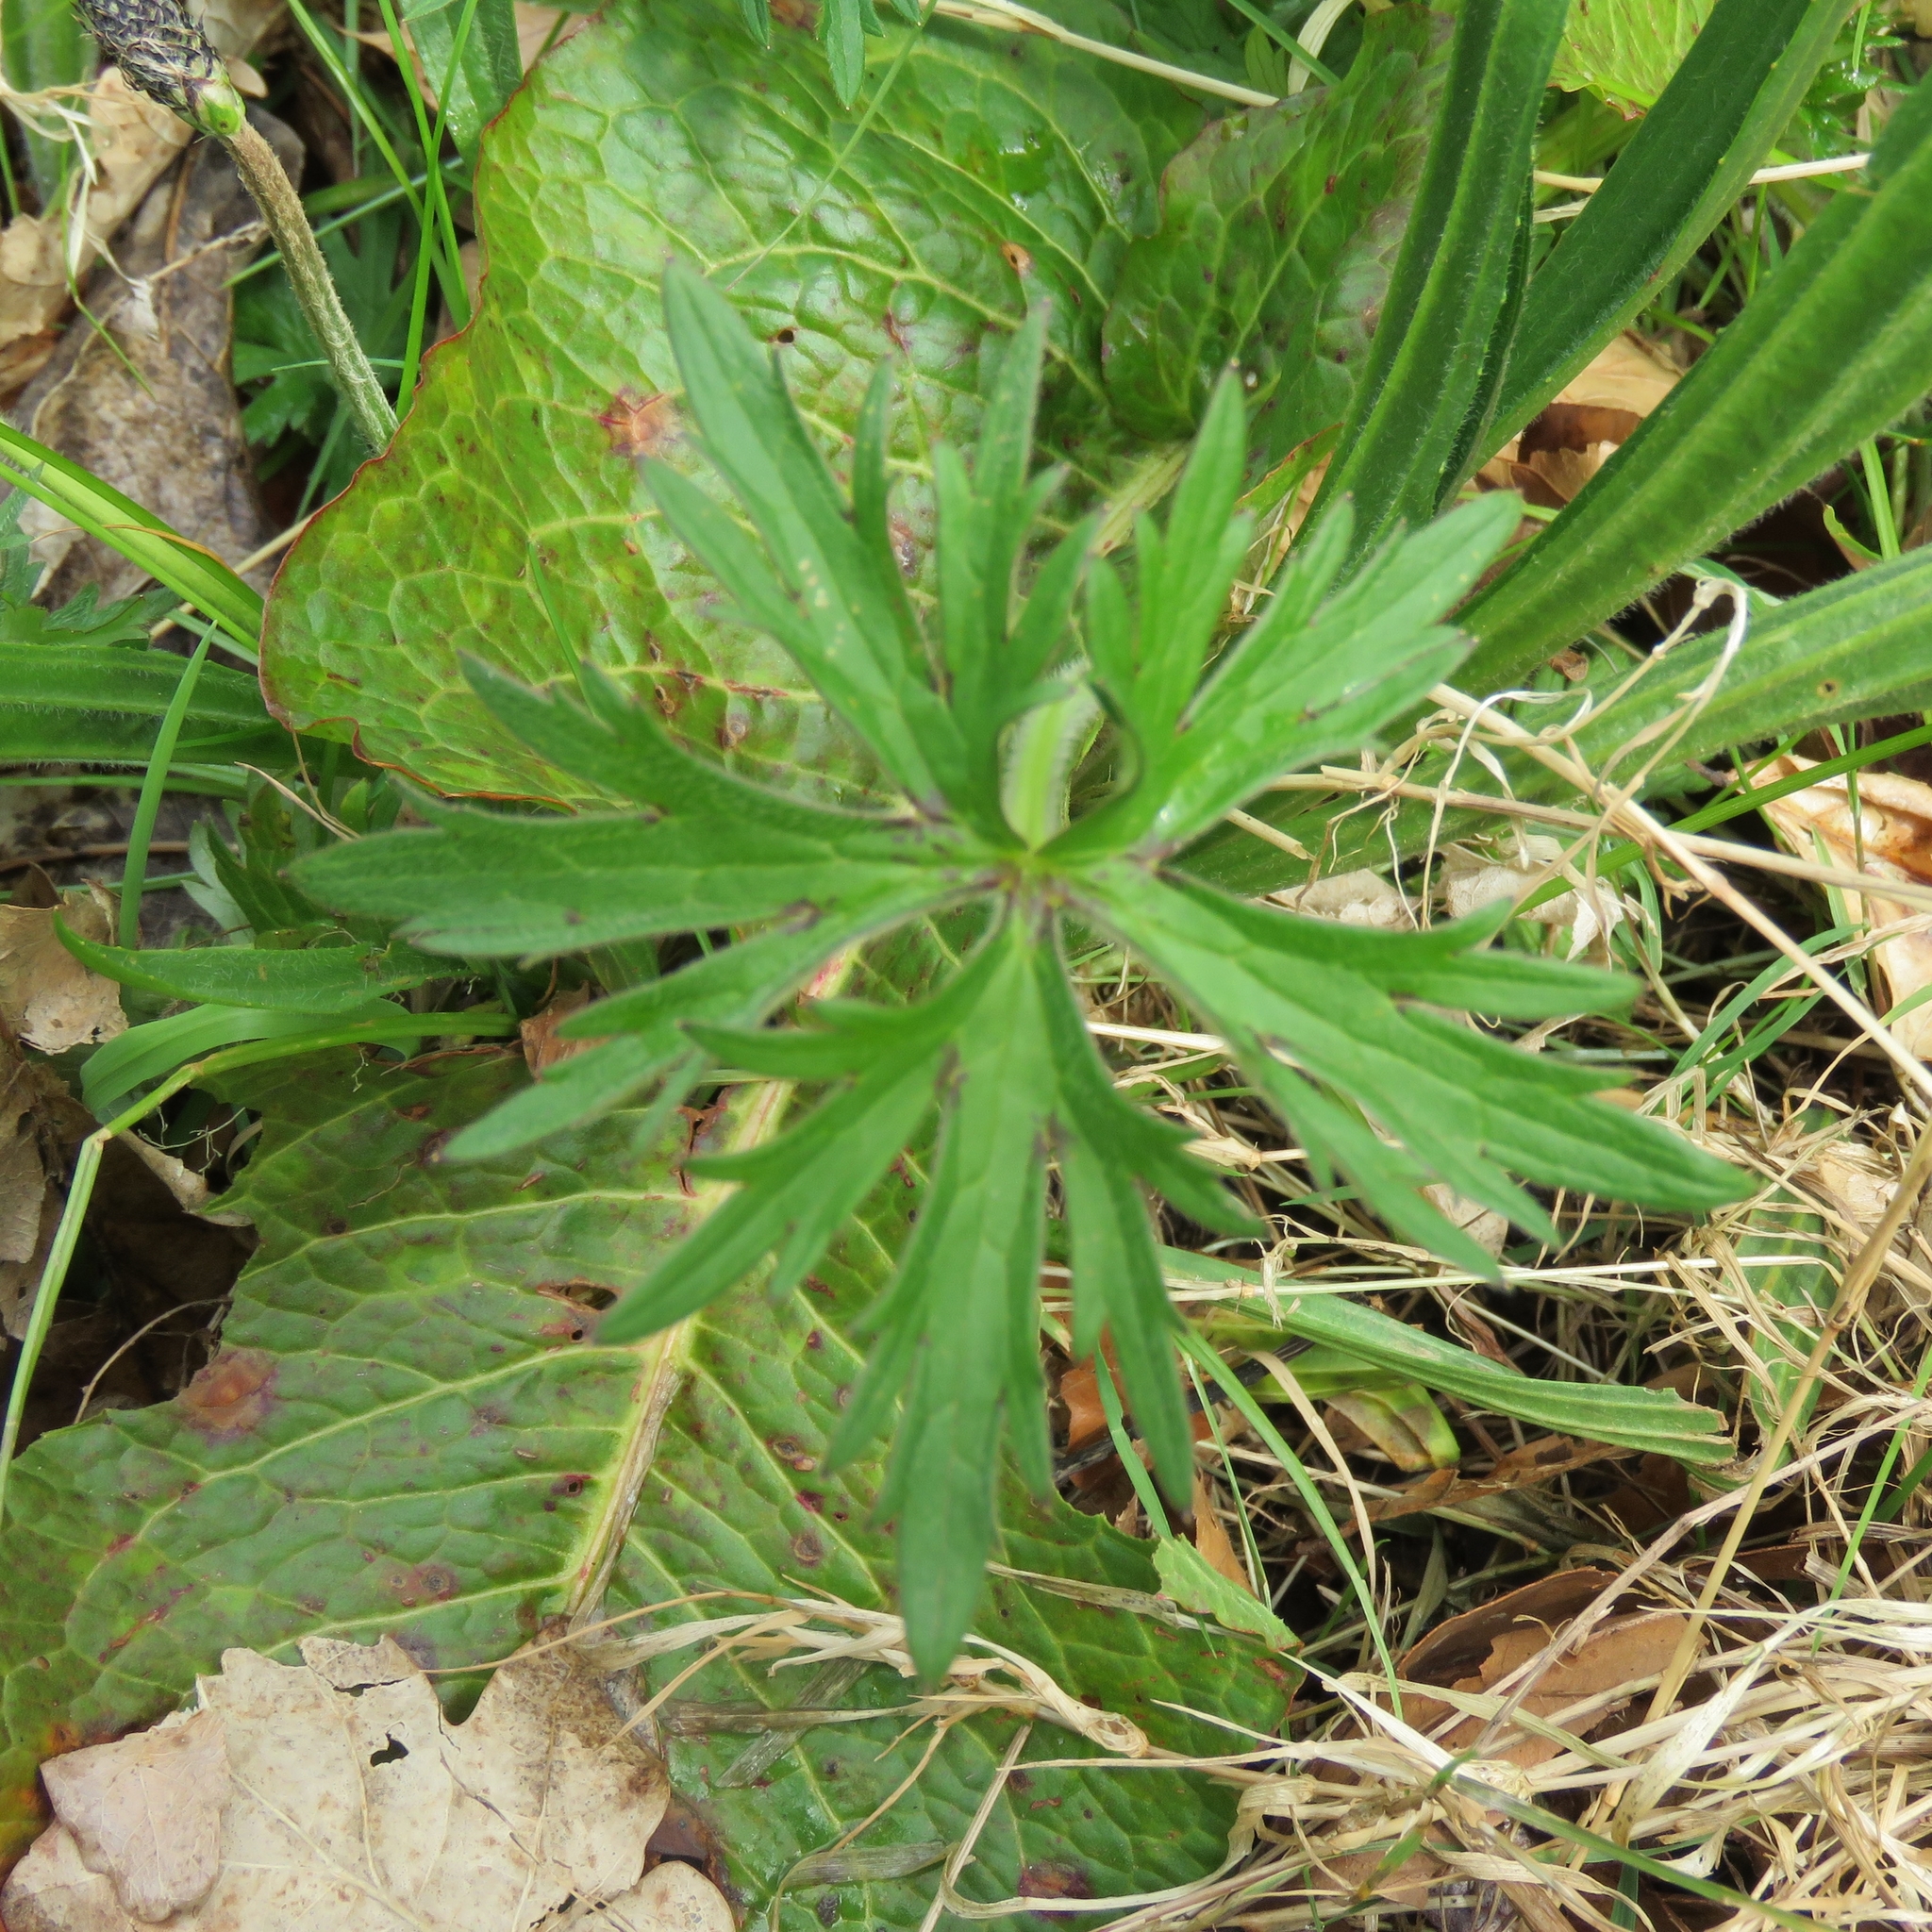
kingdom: Plantae
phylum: Tracheophyta
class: Magnoliopsida
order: Ranunculales
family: Ranunculaceae
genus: Ranunculus
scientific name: Ranunculus acris
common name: Meadow buttercup
